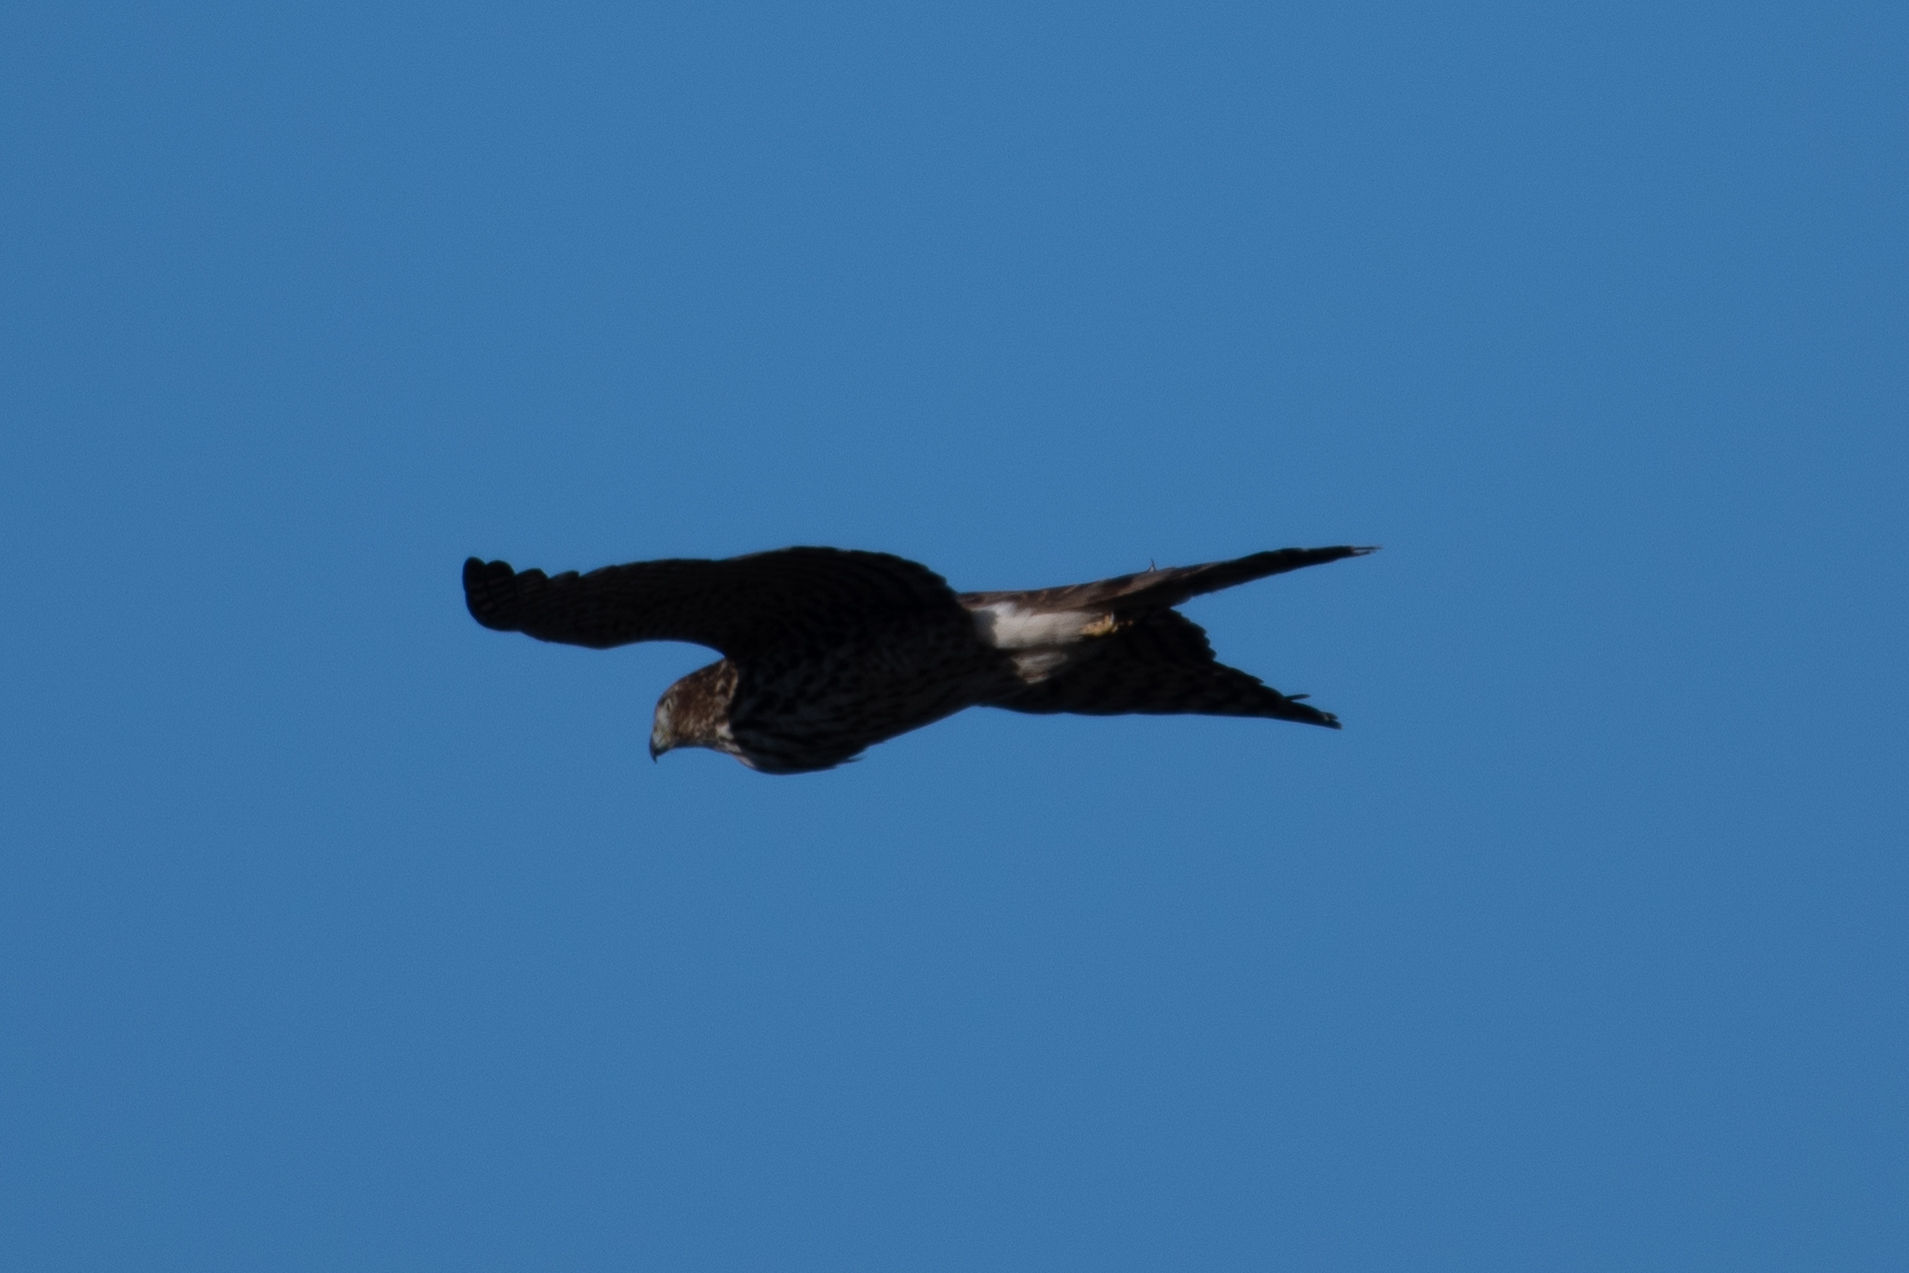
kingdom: Animalia
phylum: Chordata
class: Aves
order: Accipitriformes
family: Accipitridae
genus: Accipiter
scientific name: Accipiter cooperii
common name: Cooper's hawk
